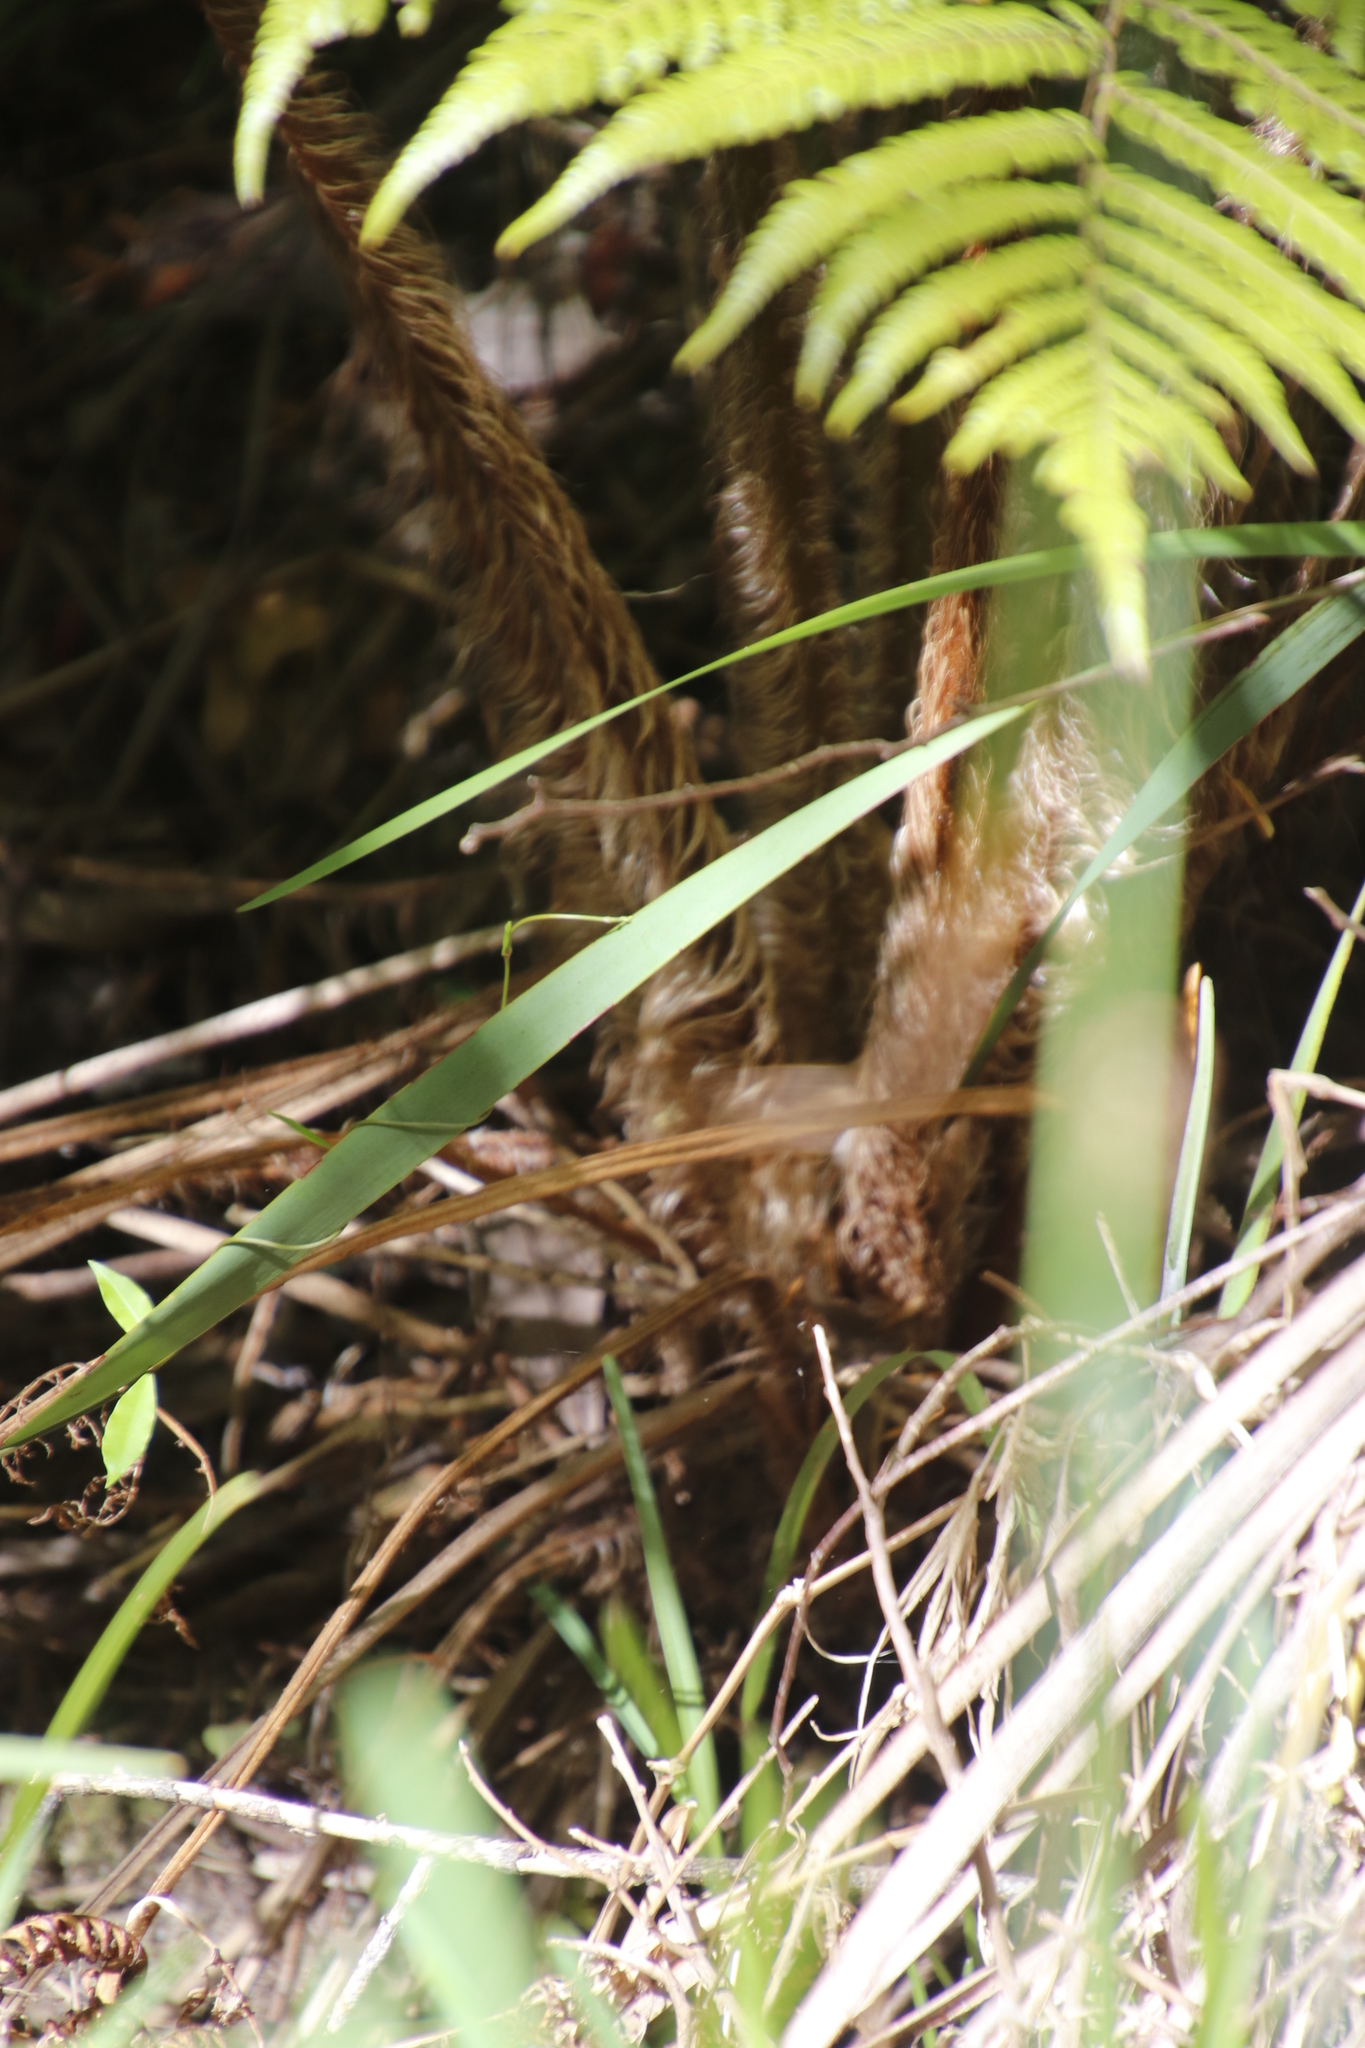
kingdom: Plantae
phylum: Tracheophyta
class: Polypodiopsida
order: Cyatheales
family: Cyatheaceae
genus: Sphaeropteris
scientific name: Sphaeropteris cooperi
